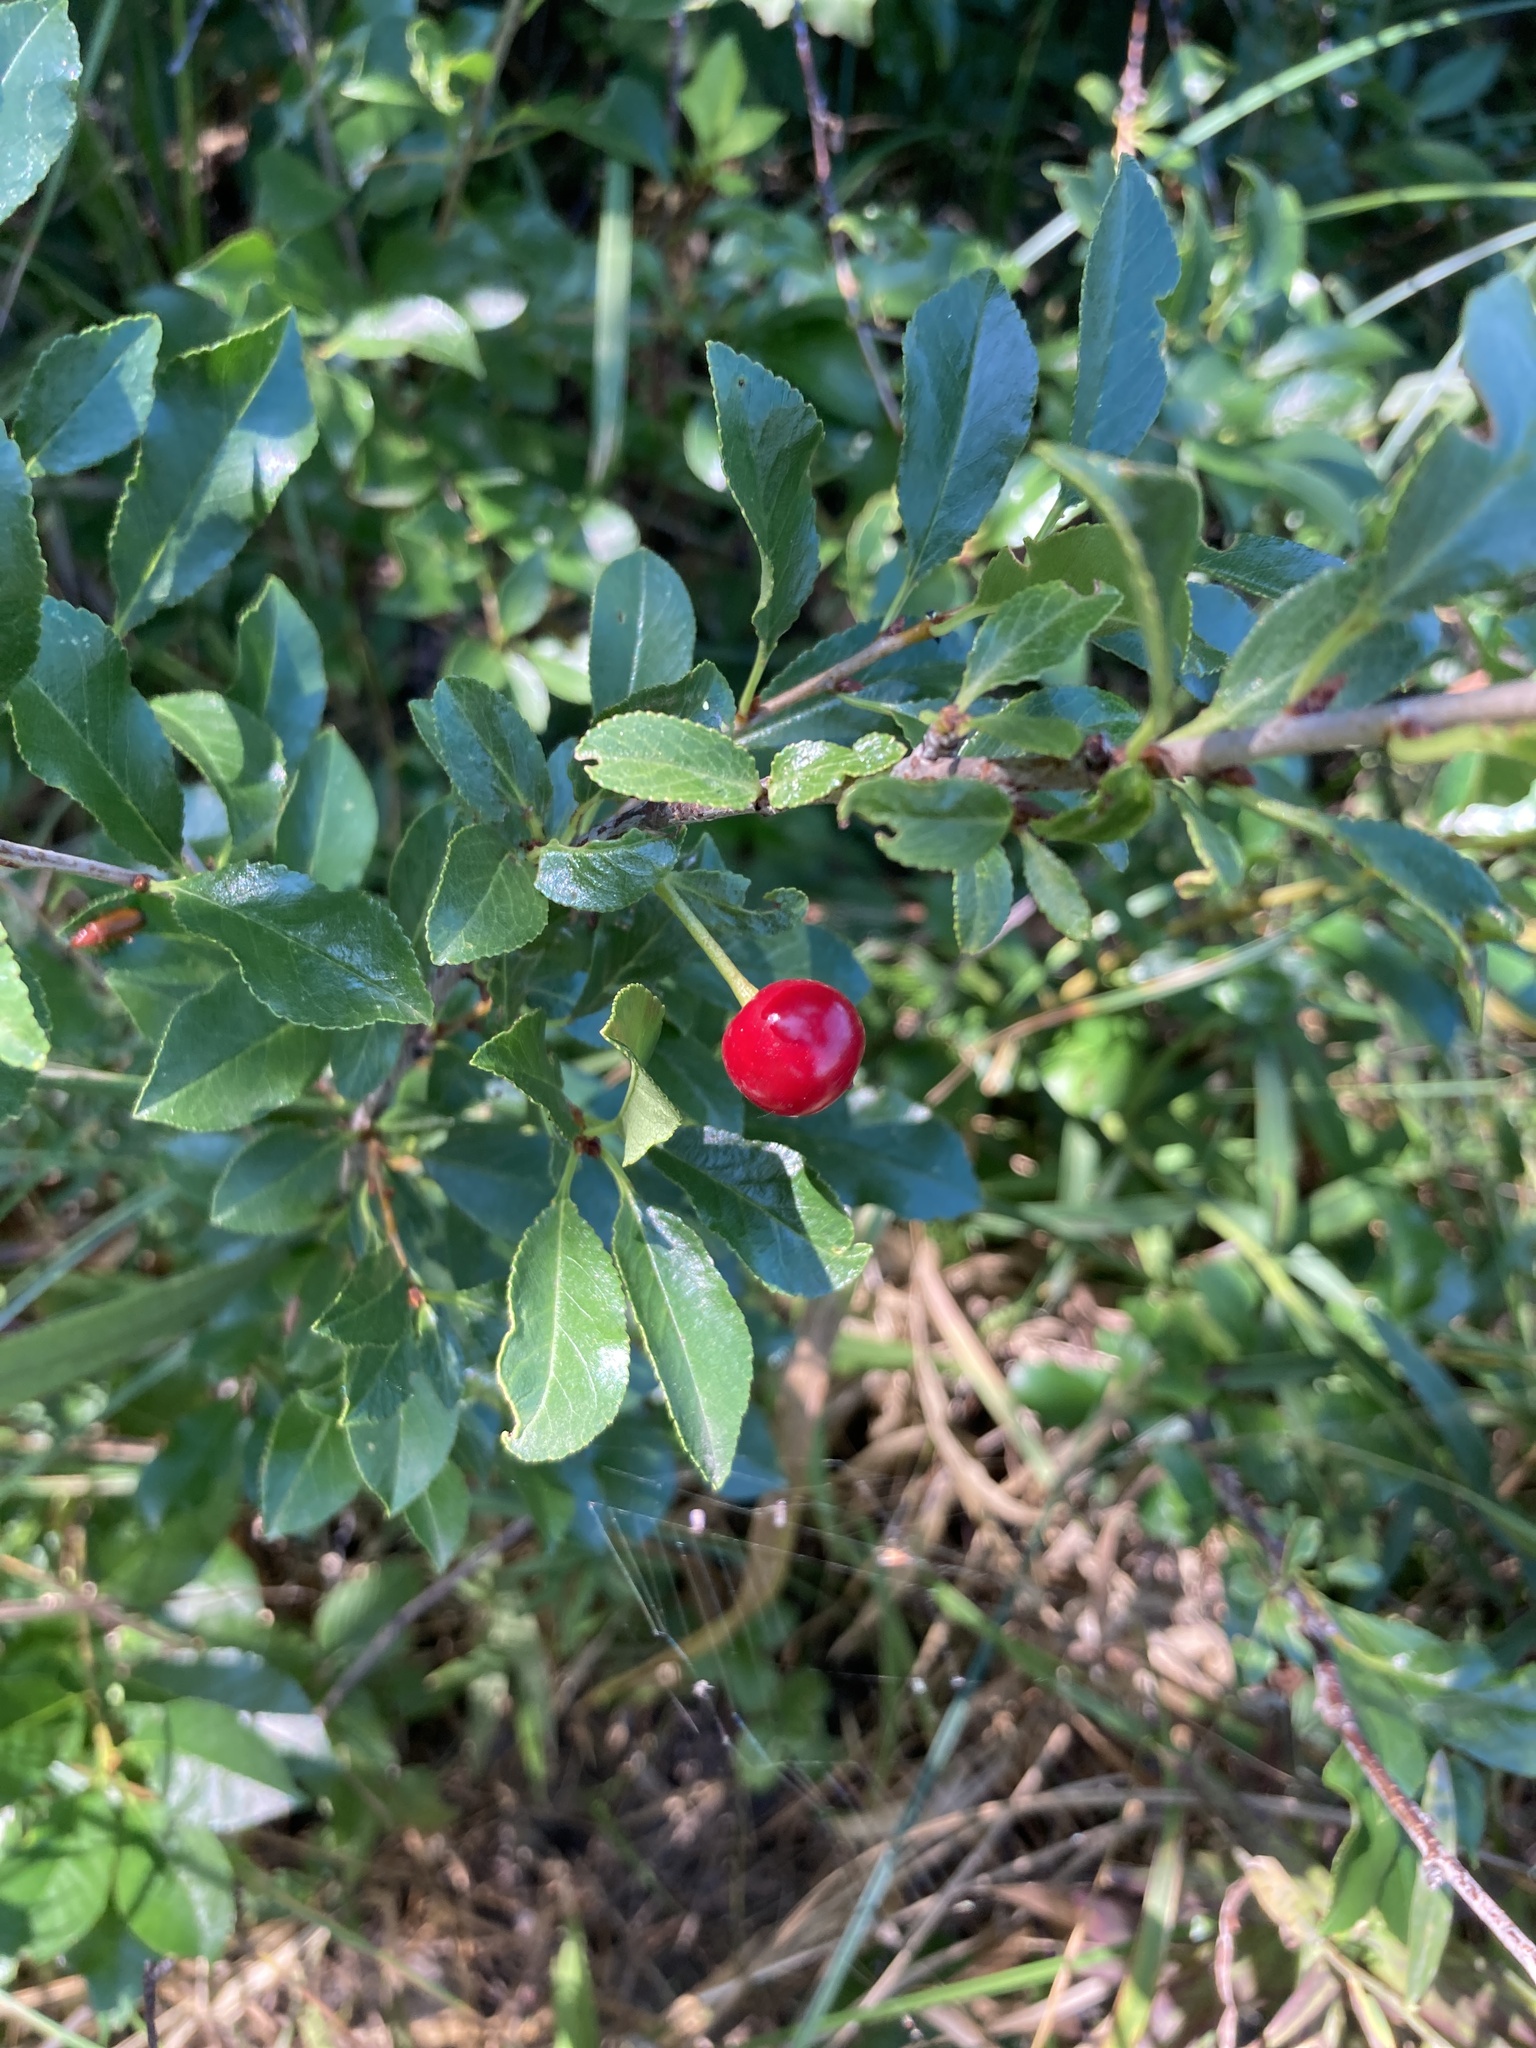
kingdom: Plantae
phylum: Tracheophyta
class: Magnoliopsida
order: Rosales
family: Rosaceae
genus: Prunus
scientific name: Prunus fruticosa
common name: European dwarf cherry
